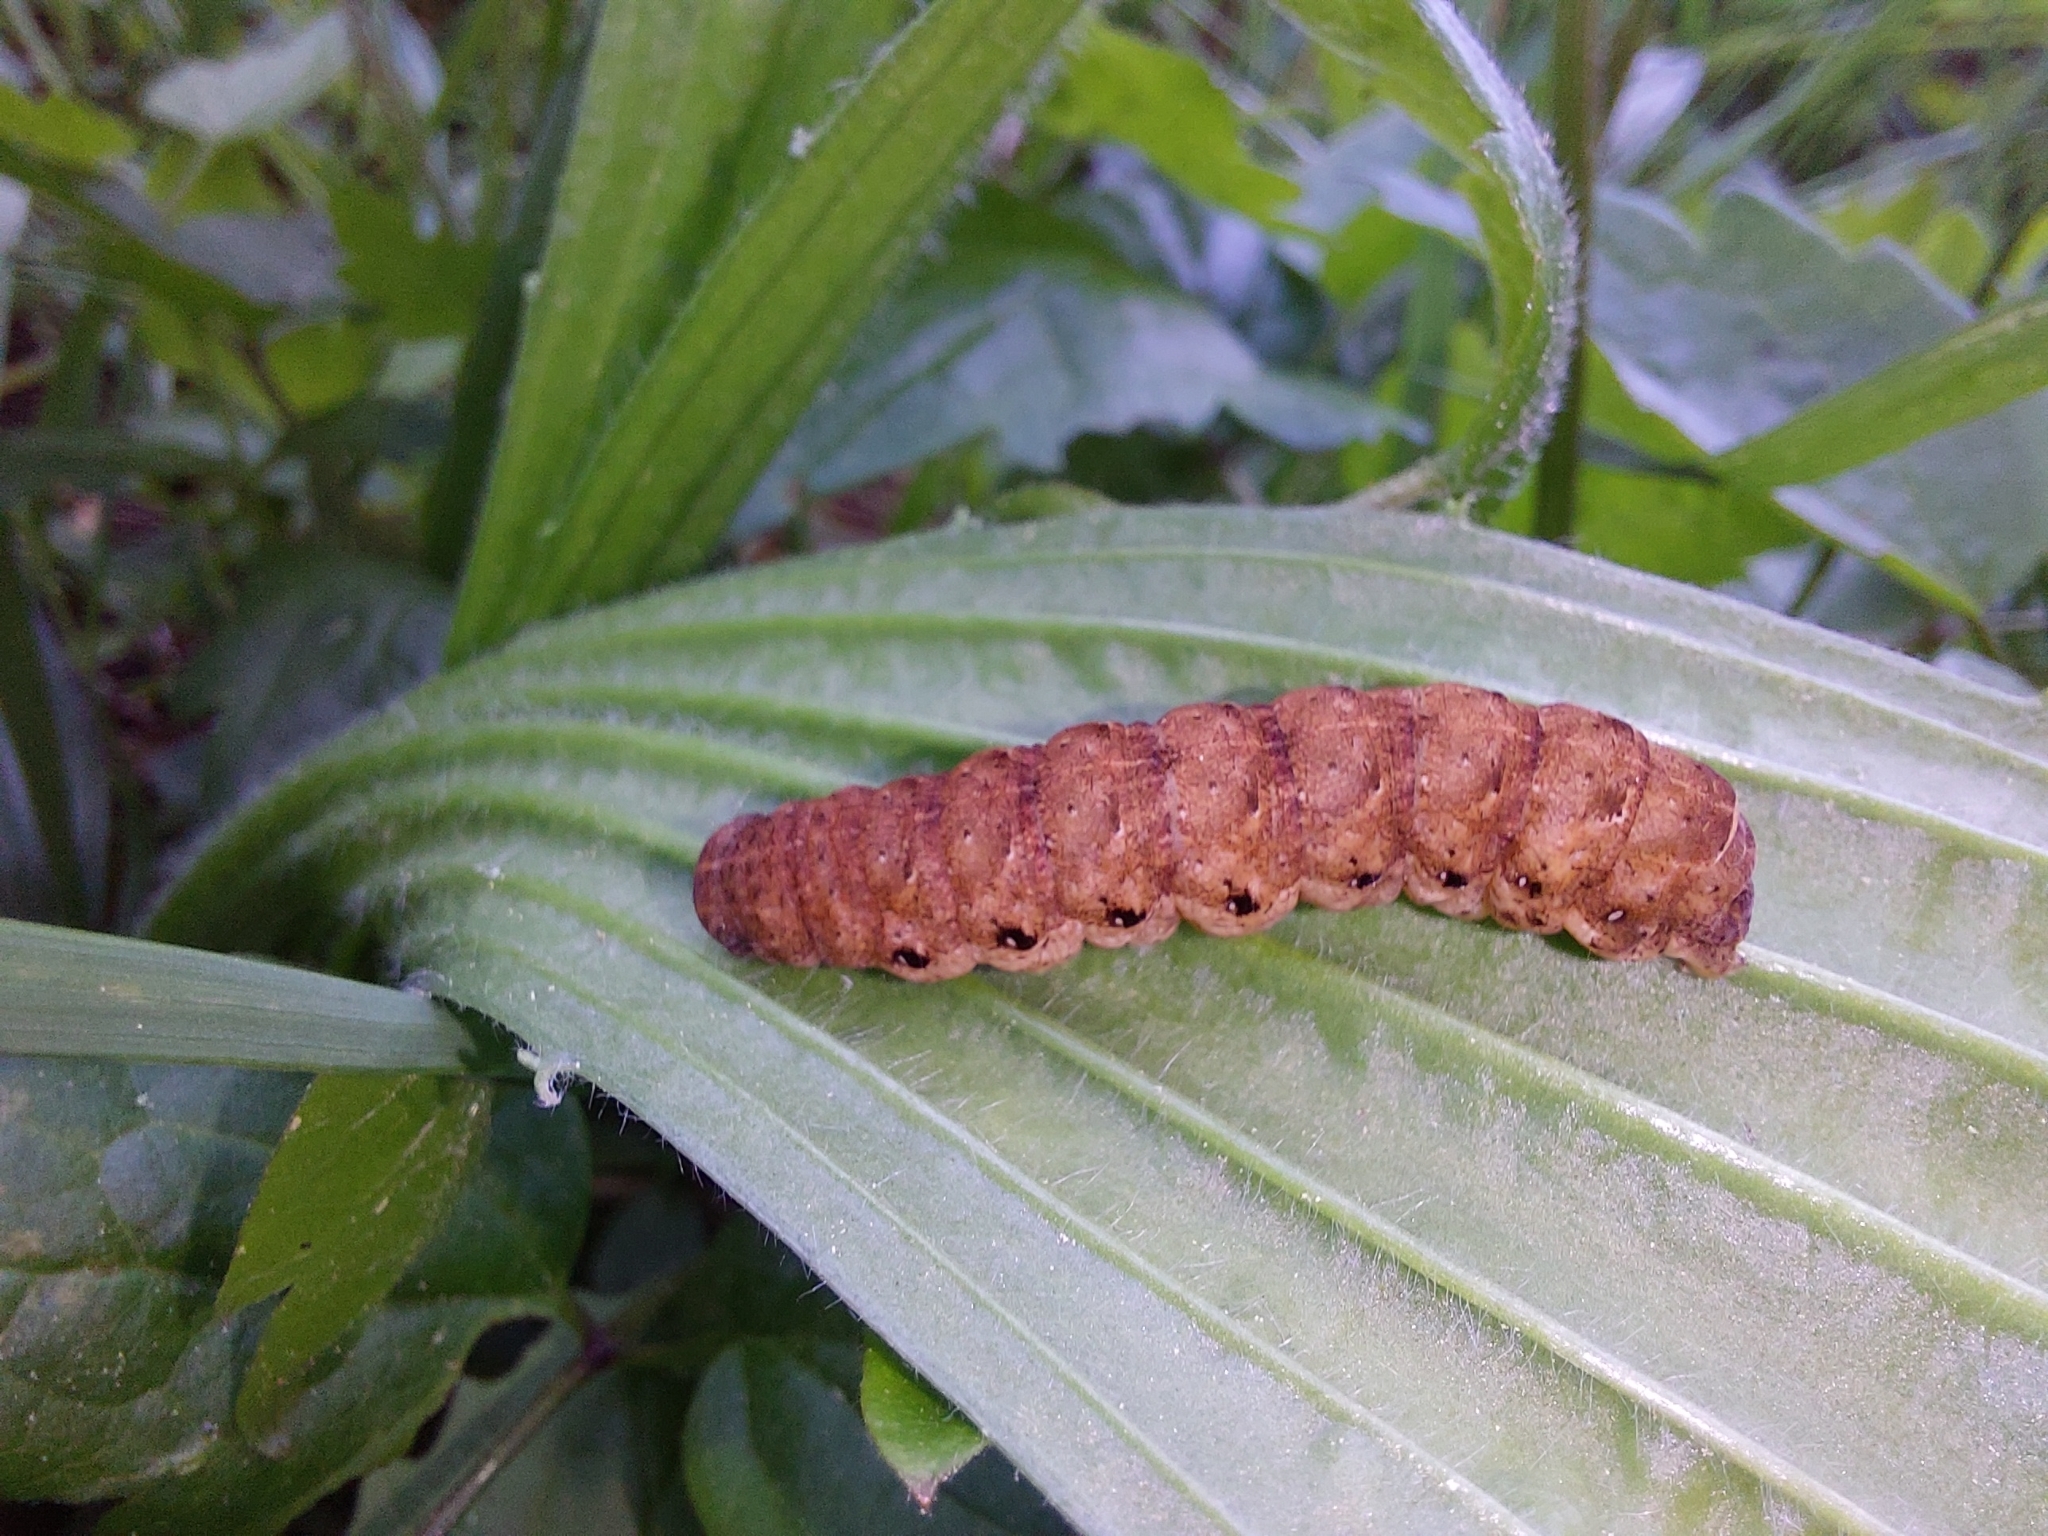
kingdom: Animalia
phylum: Arthropoda
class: Insecta
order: Lepidoptera
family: Noctuidae
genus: Noctua
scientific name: Noctua fimbriata
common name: Broad-bordered yellow underwing
